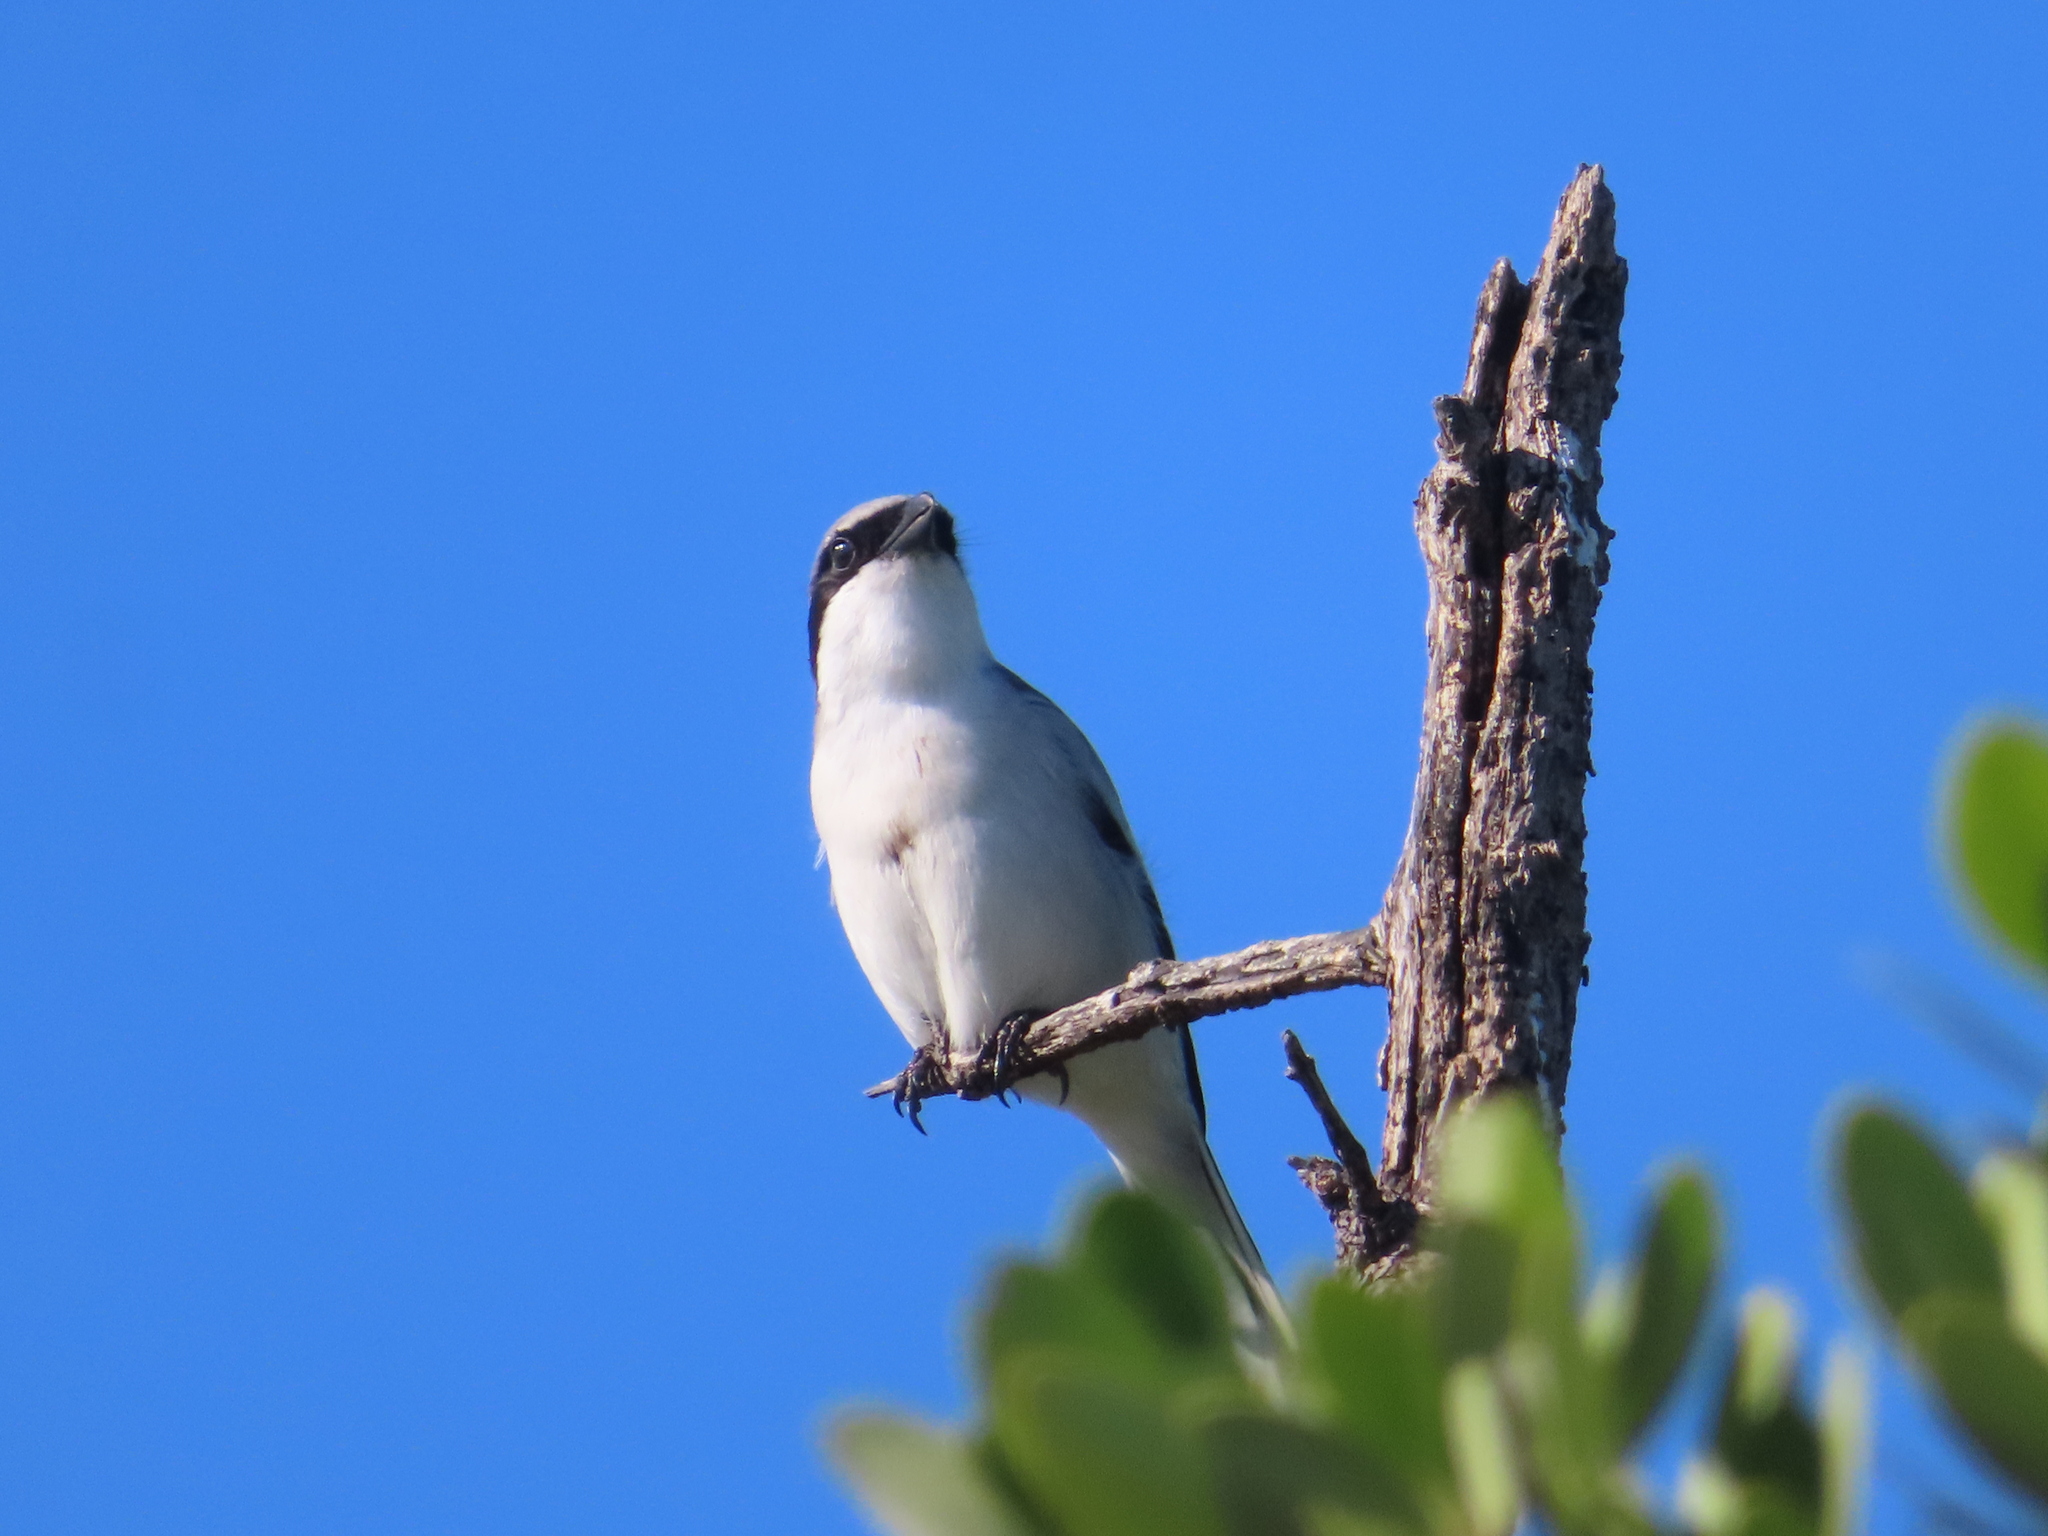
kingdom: Animalia
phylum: Chordata
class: Aves
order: Passeriformes
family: Laniidae
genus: Lanius
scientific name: Lanius ludovicianus
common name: Loggerhead shrike
